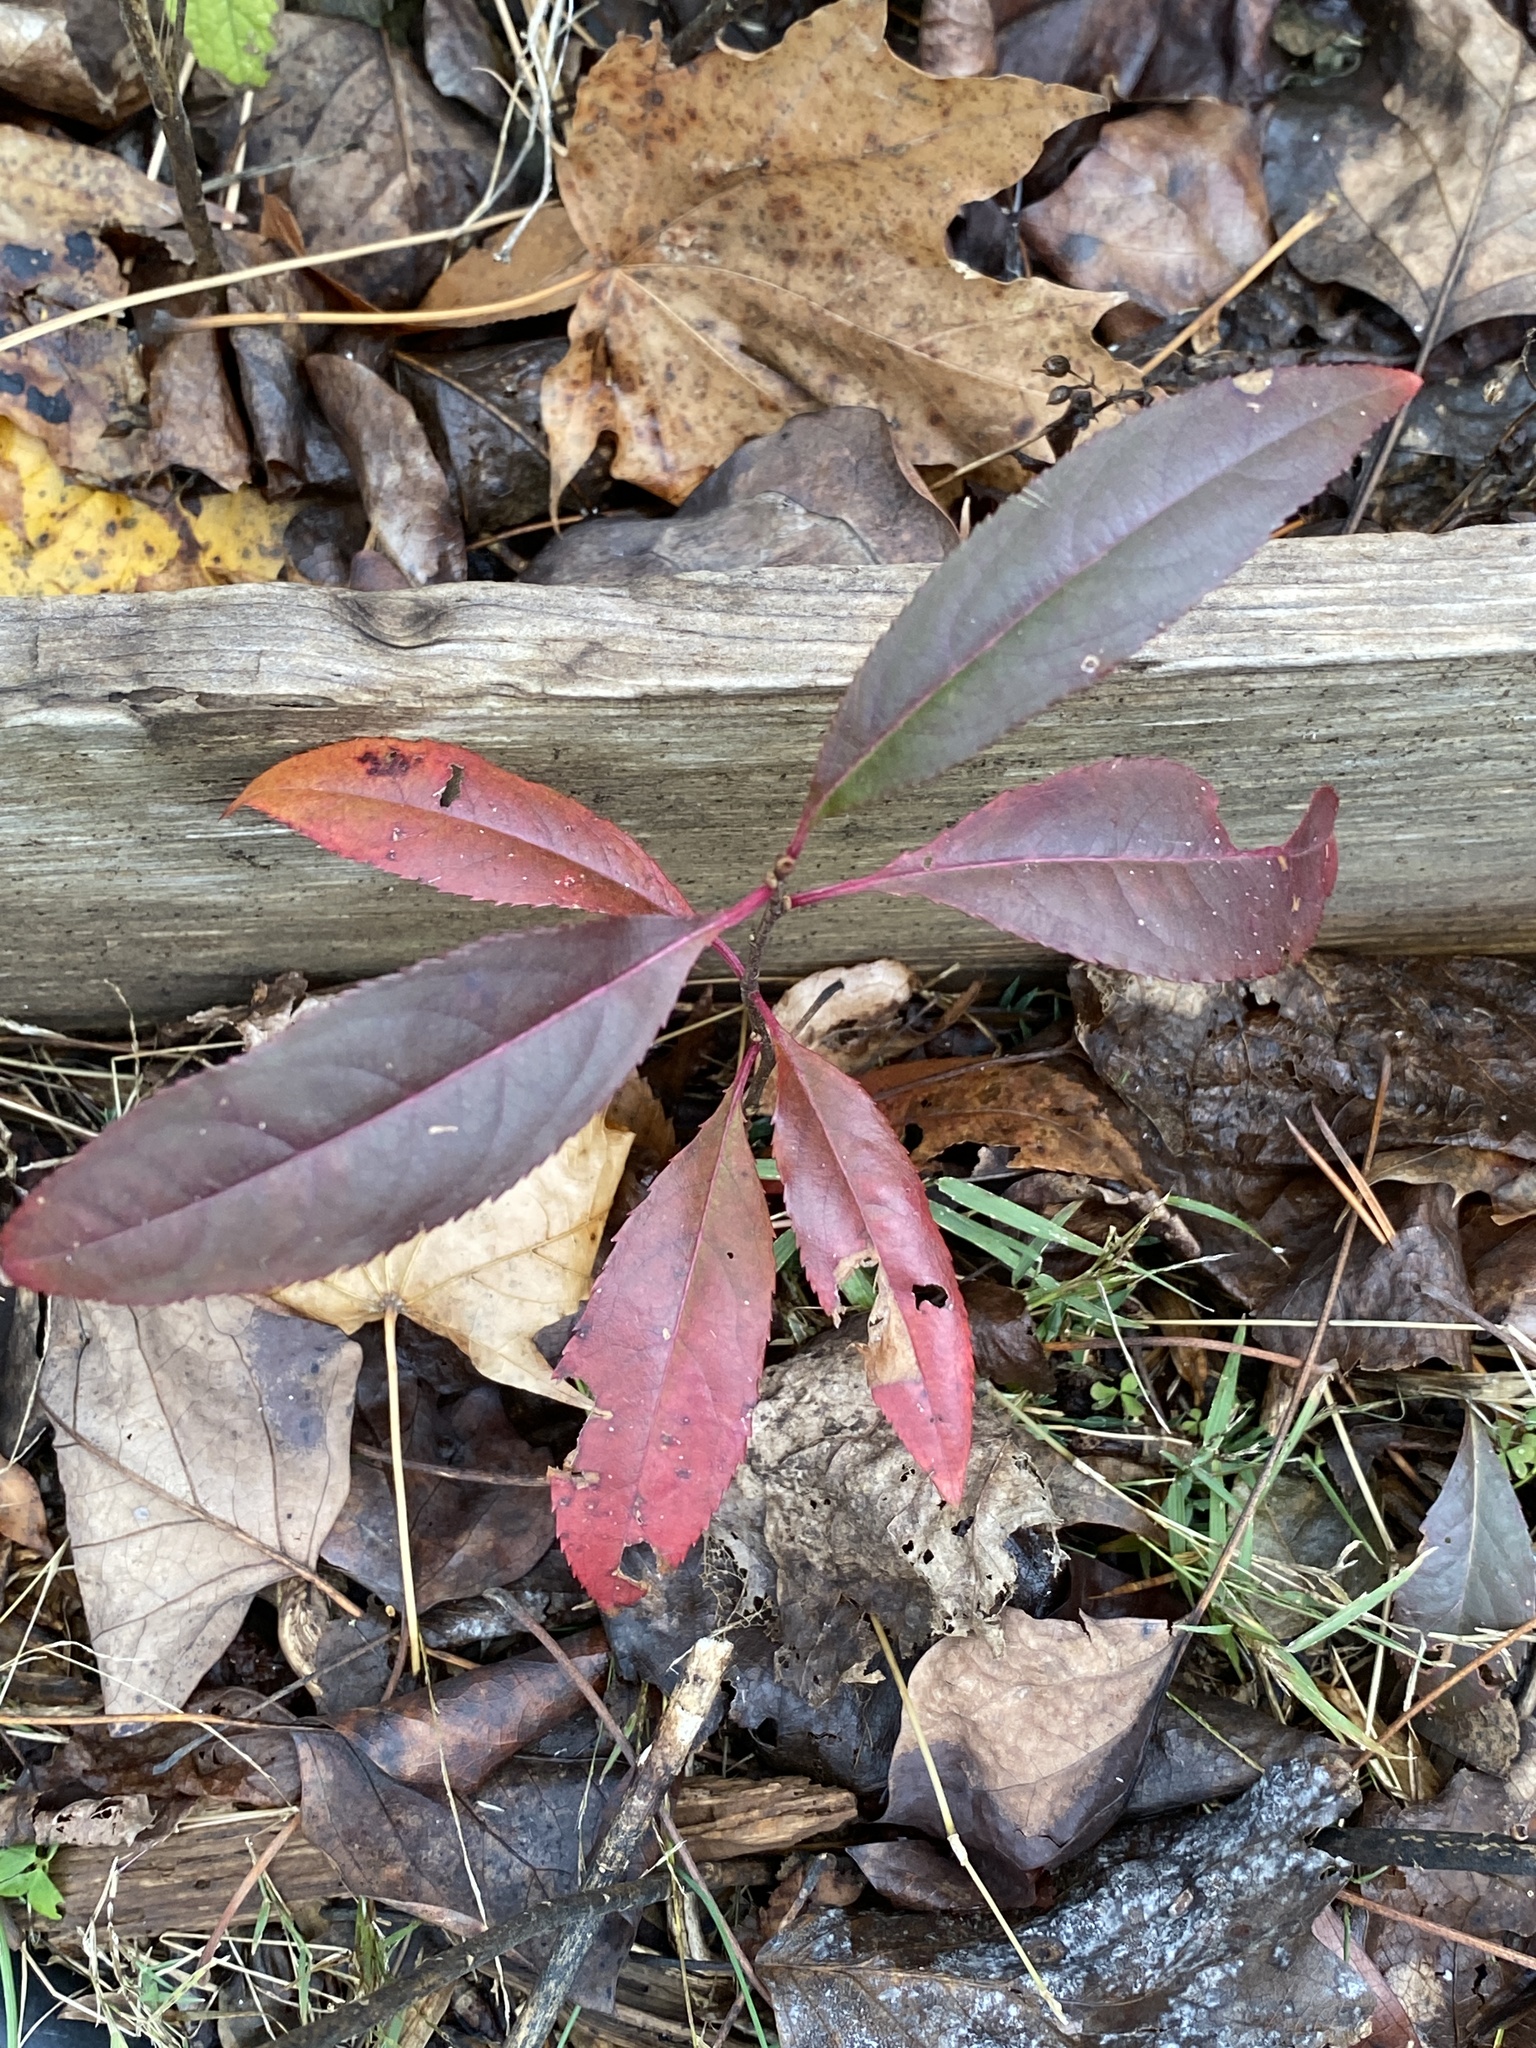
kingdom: Plantae
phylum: Tracheophyta
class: Magnoliopsida
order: Rosales
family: Rosaceae
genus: Prunus
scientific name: Prunus serotina
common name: Black cherry
